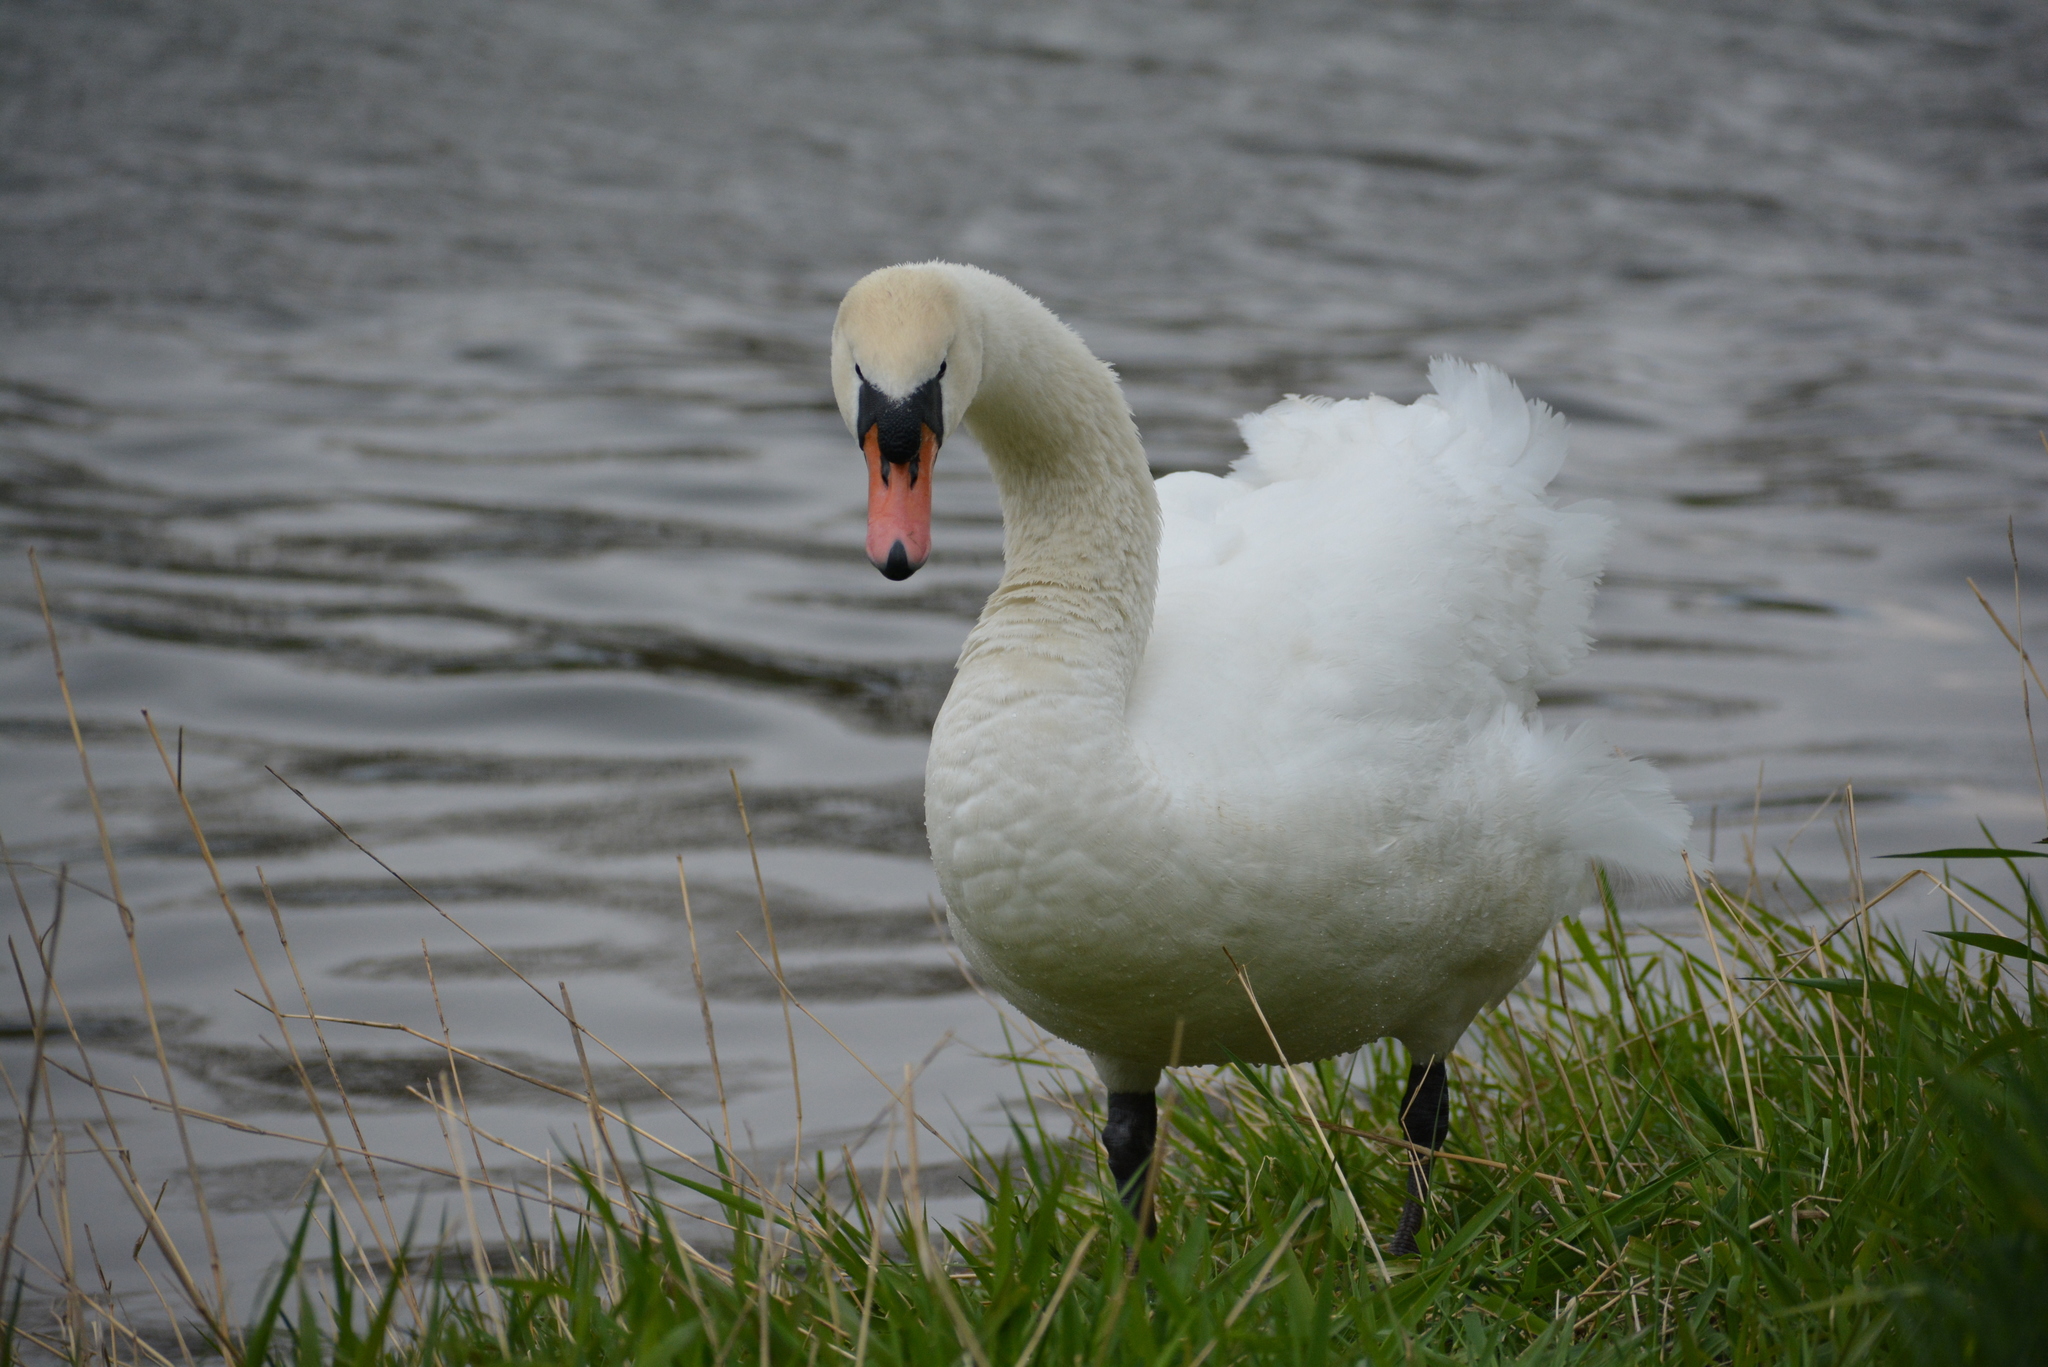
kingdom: Animalia
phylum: Chordata
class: Aves
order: Anseriformes
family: Anatidae
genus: Cygnus
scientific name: Cygnus olor
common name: Mute swan
